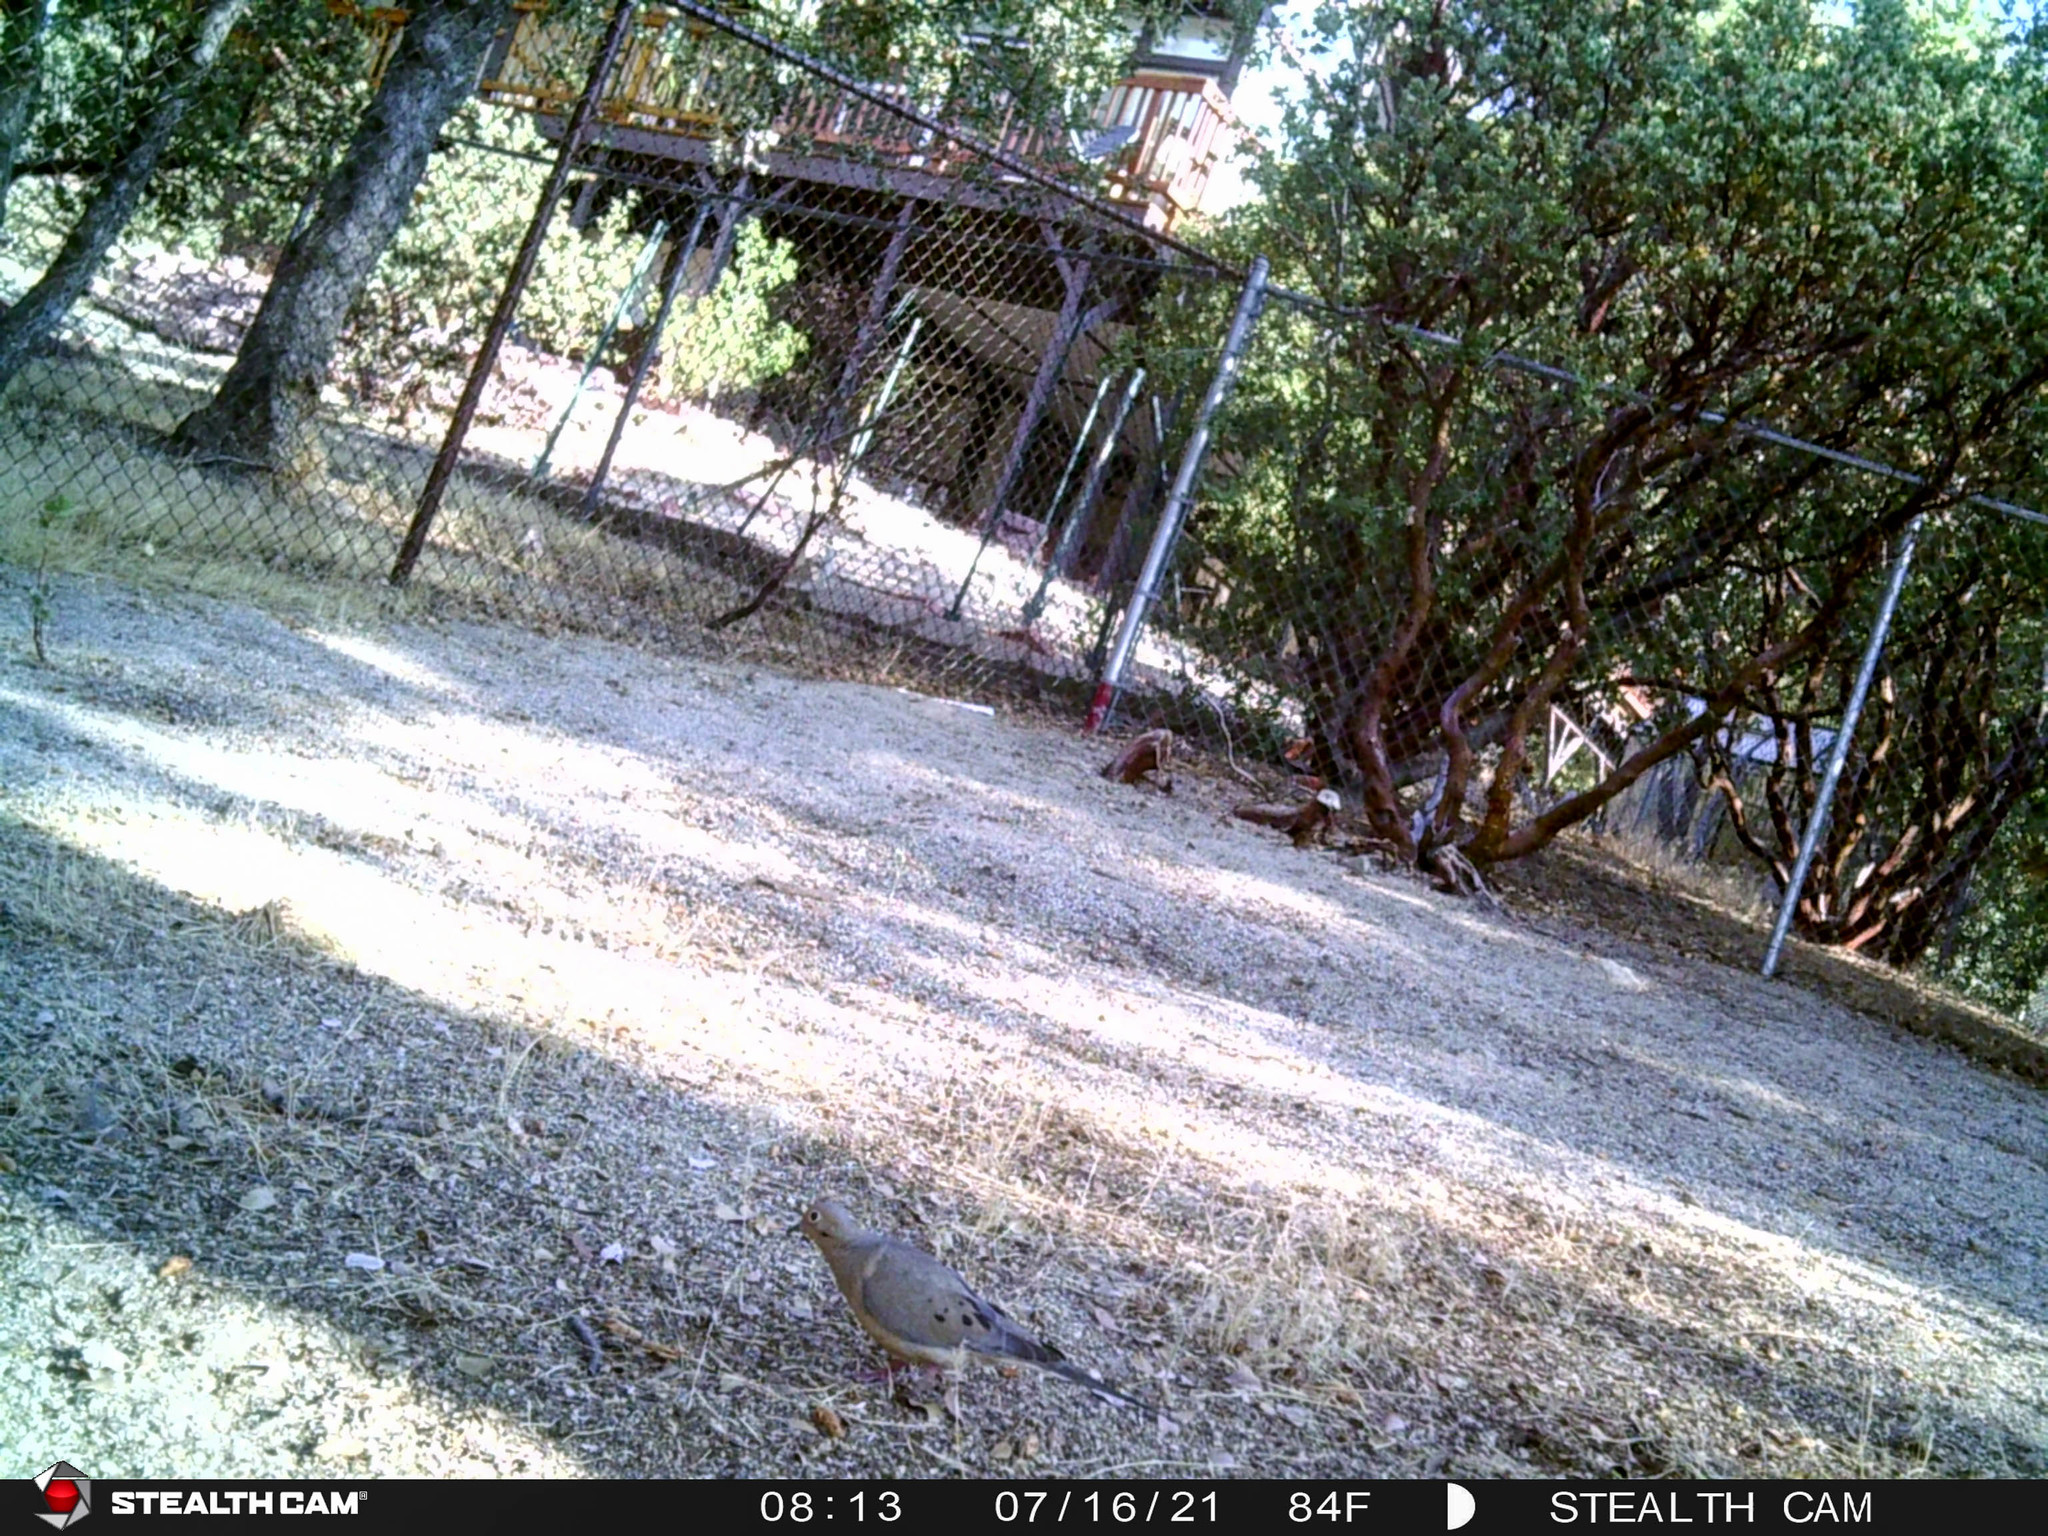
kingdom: Animalia
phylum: Chordata
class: Aves
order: Columbiformes
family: Columbidae
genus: Zenaida
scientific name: Zenaida macroura
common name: Mourning dove
